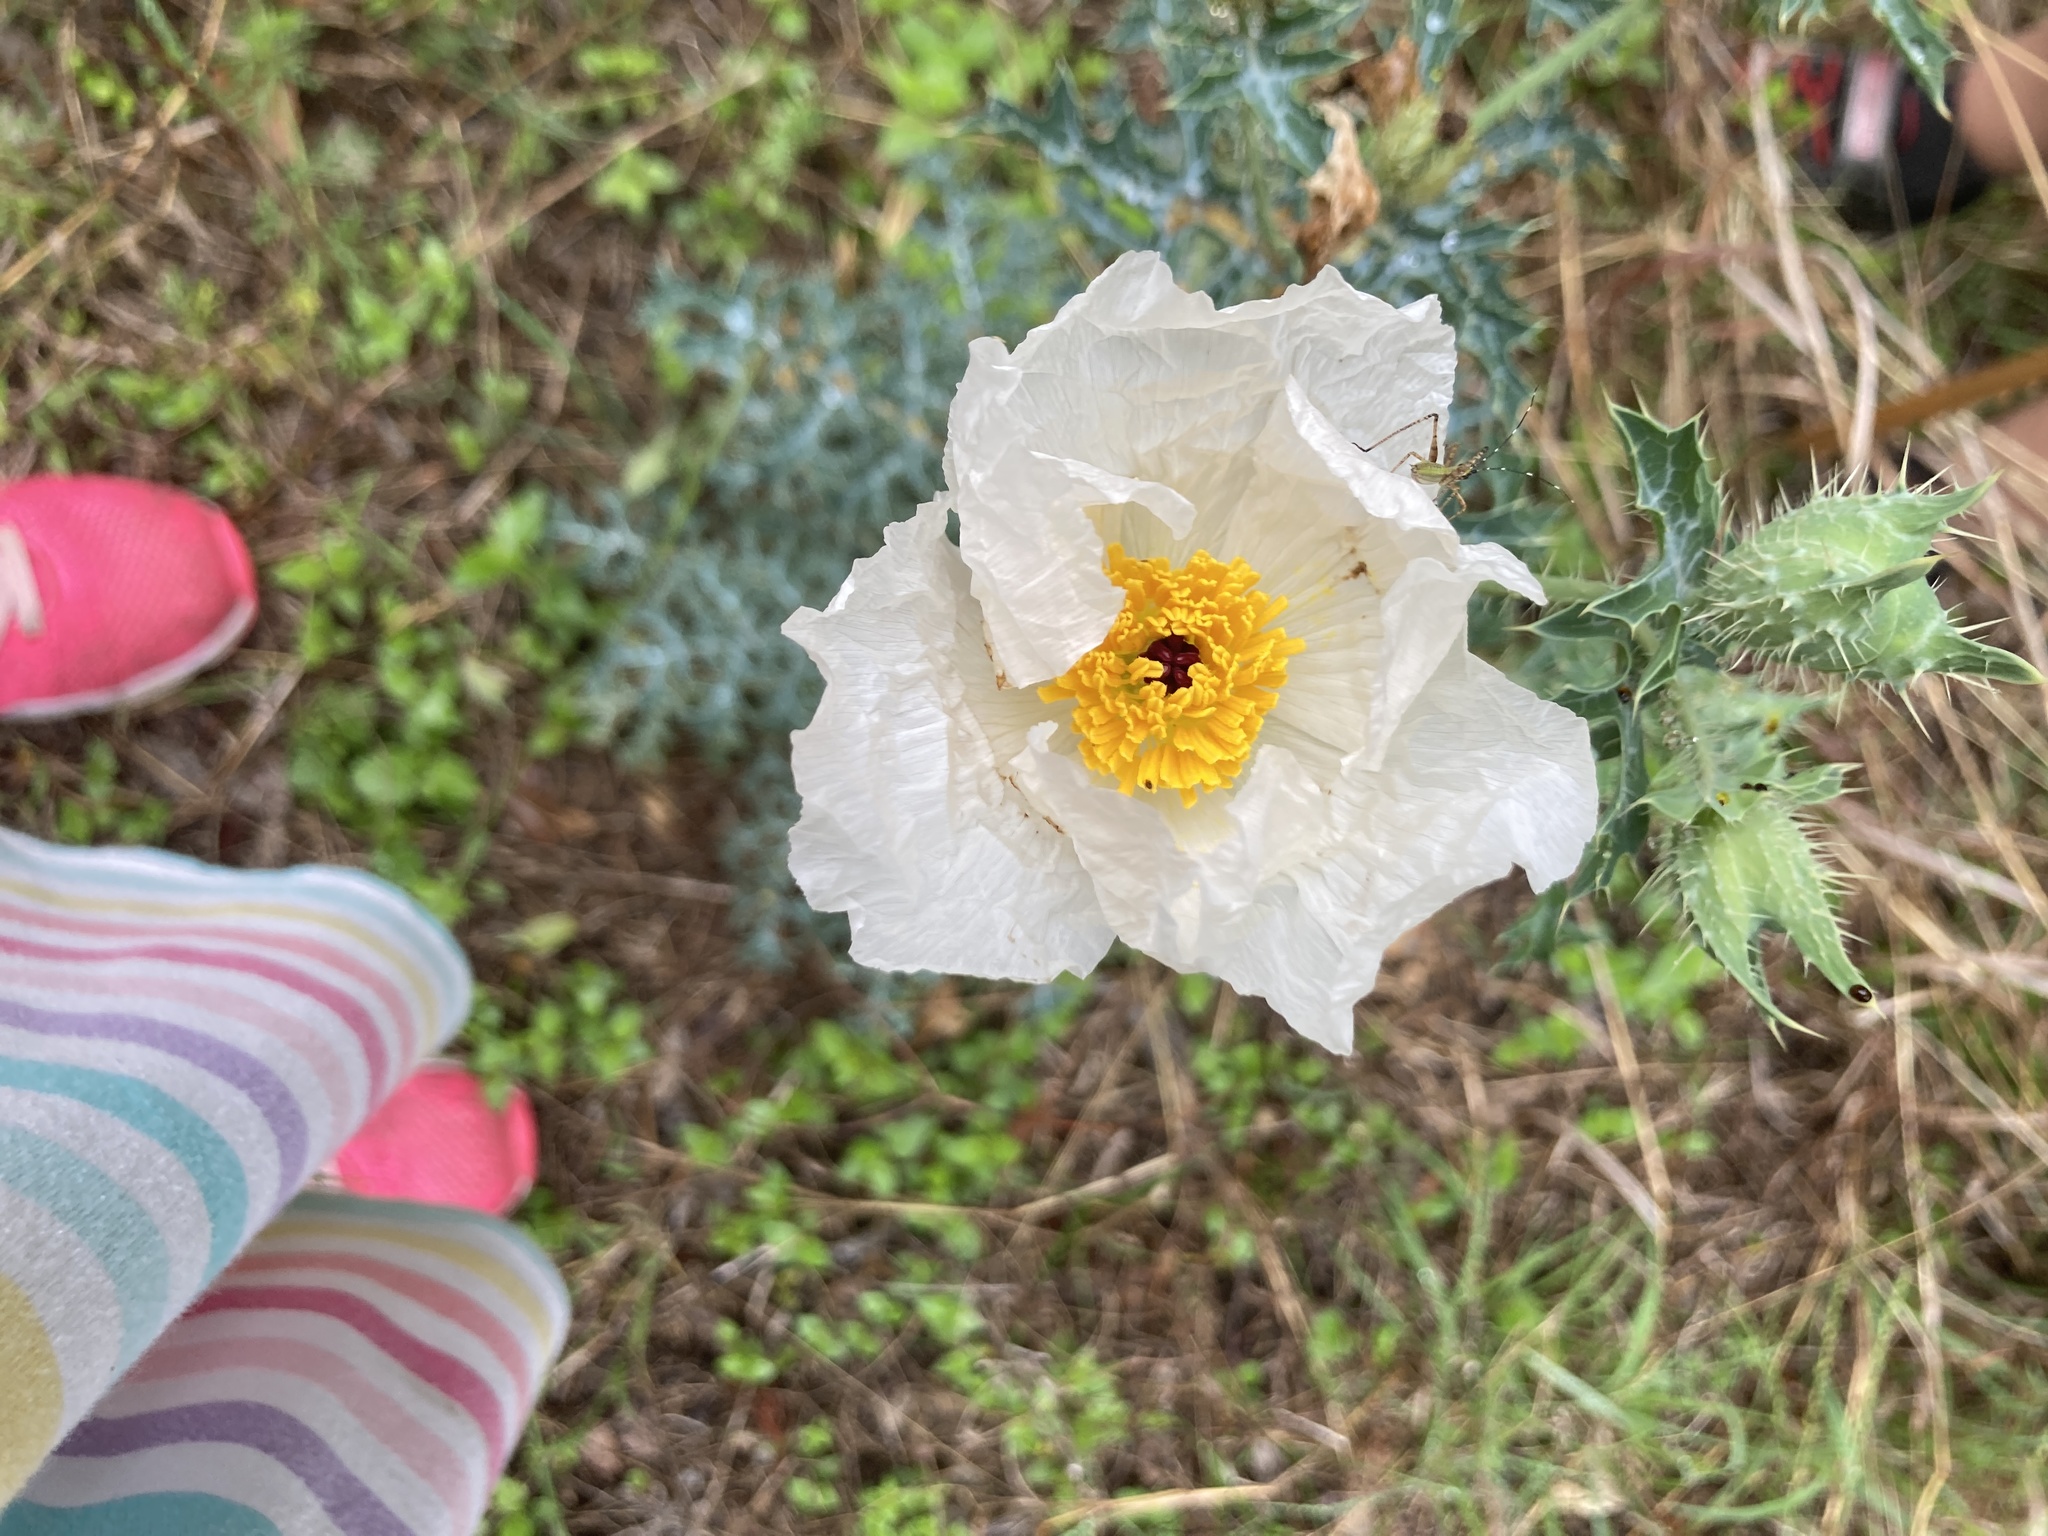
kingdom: Plantae
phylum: Tracheophyta
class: Magnoliopsida
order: Ranunculales
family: Papaveraceae
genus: Argemone
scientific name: Argemone albiflora
